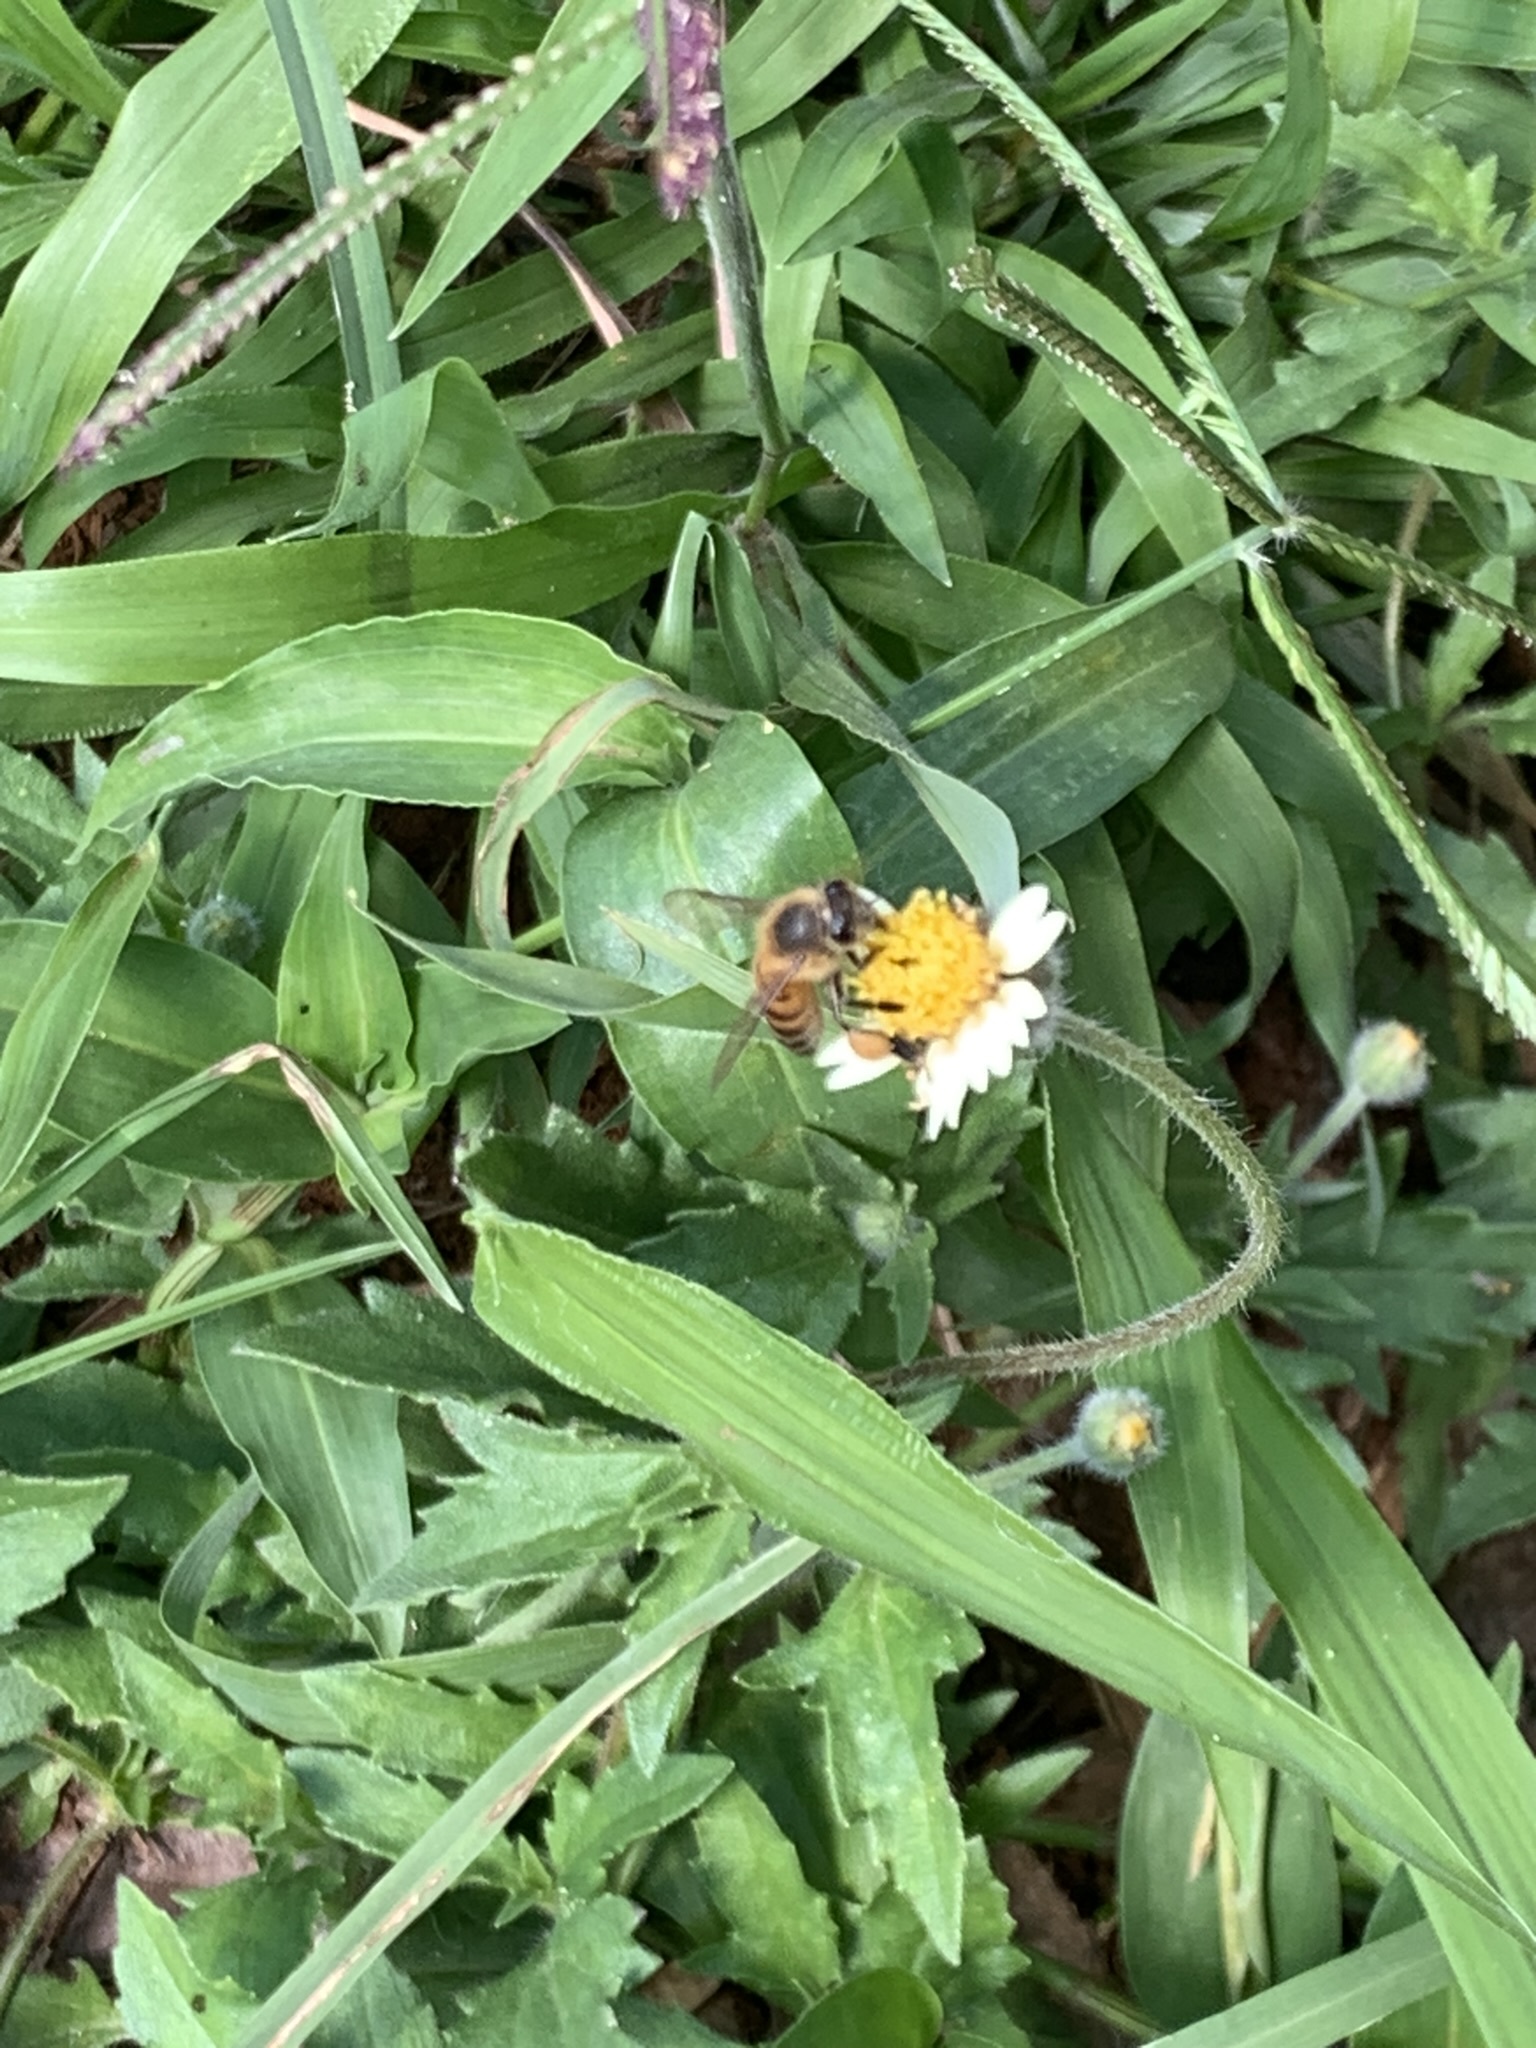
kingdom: Animalia
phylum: Arthropoda
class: Insecta
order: Hymenoptera
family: Apidae
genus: Apis
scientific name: Apis mellifera
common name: Honey bee
